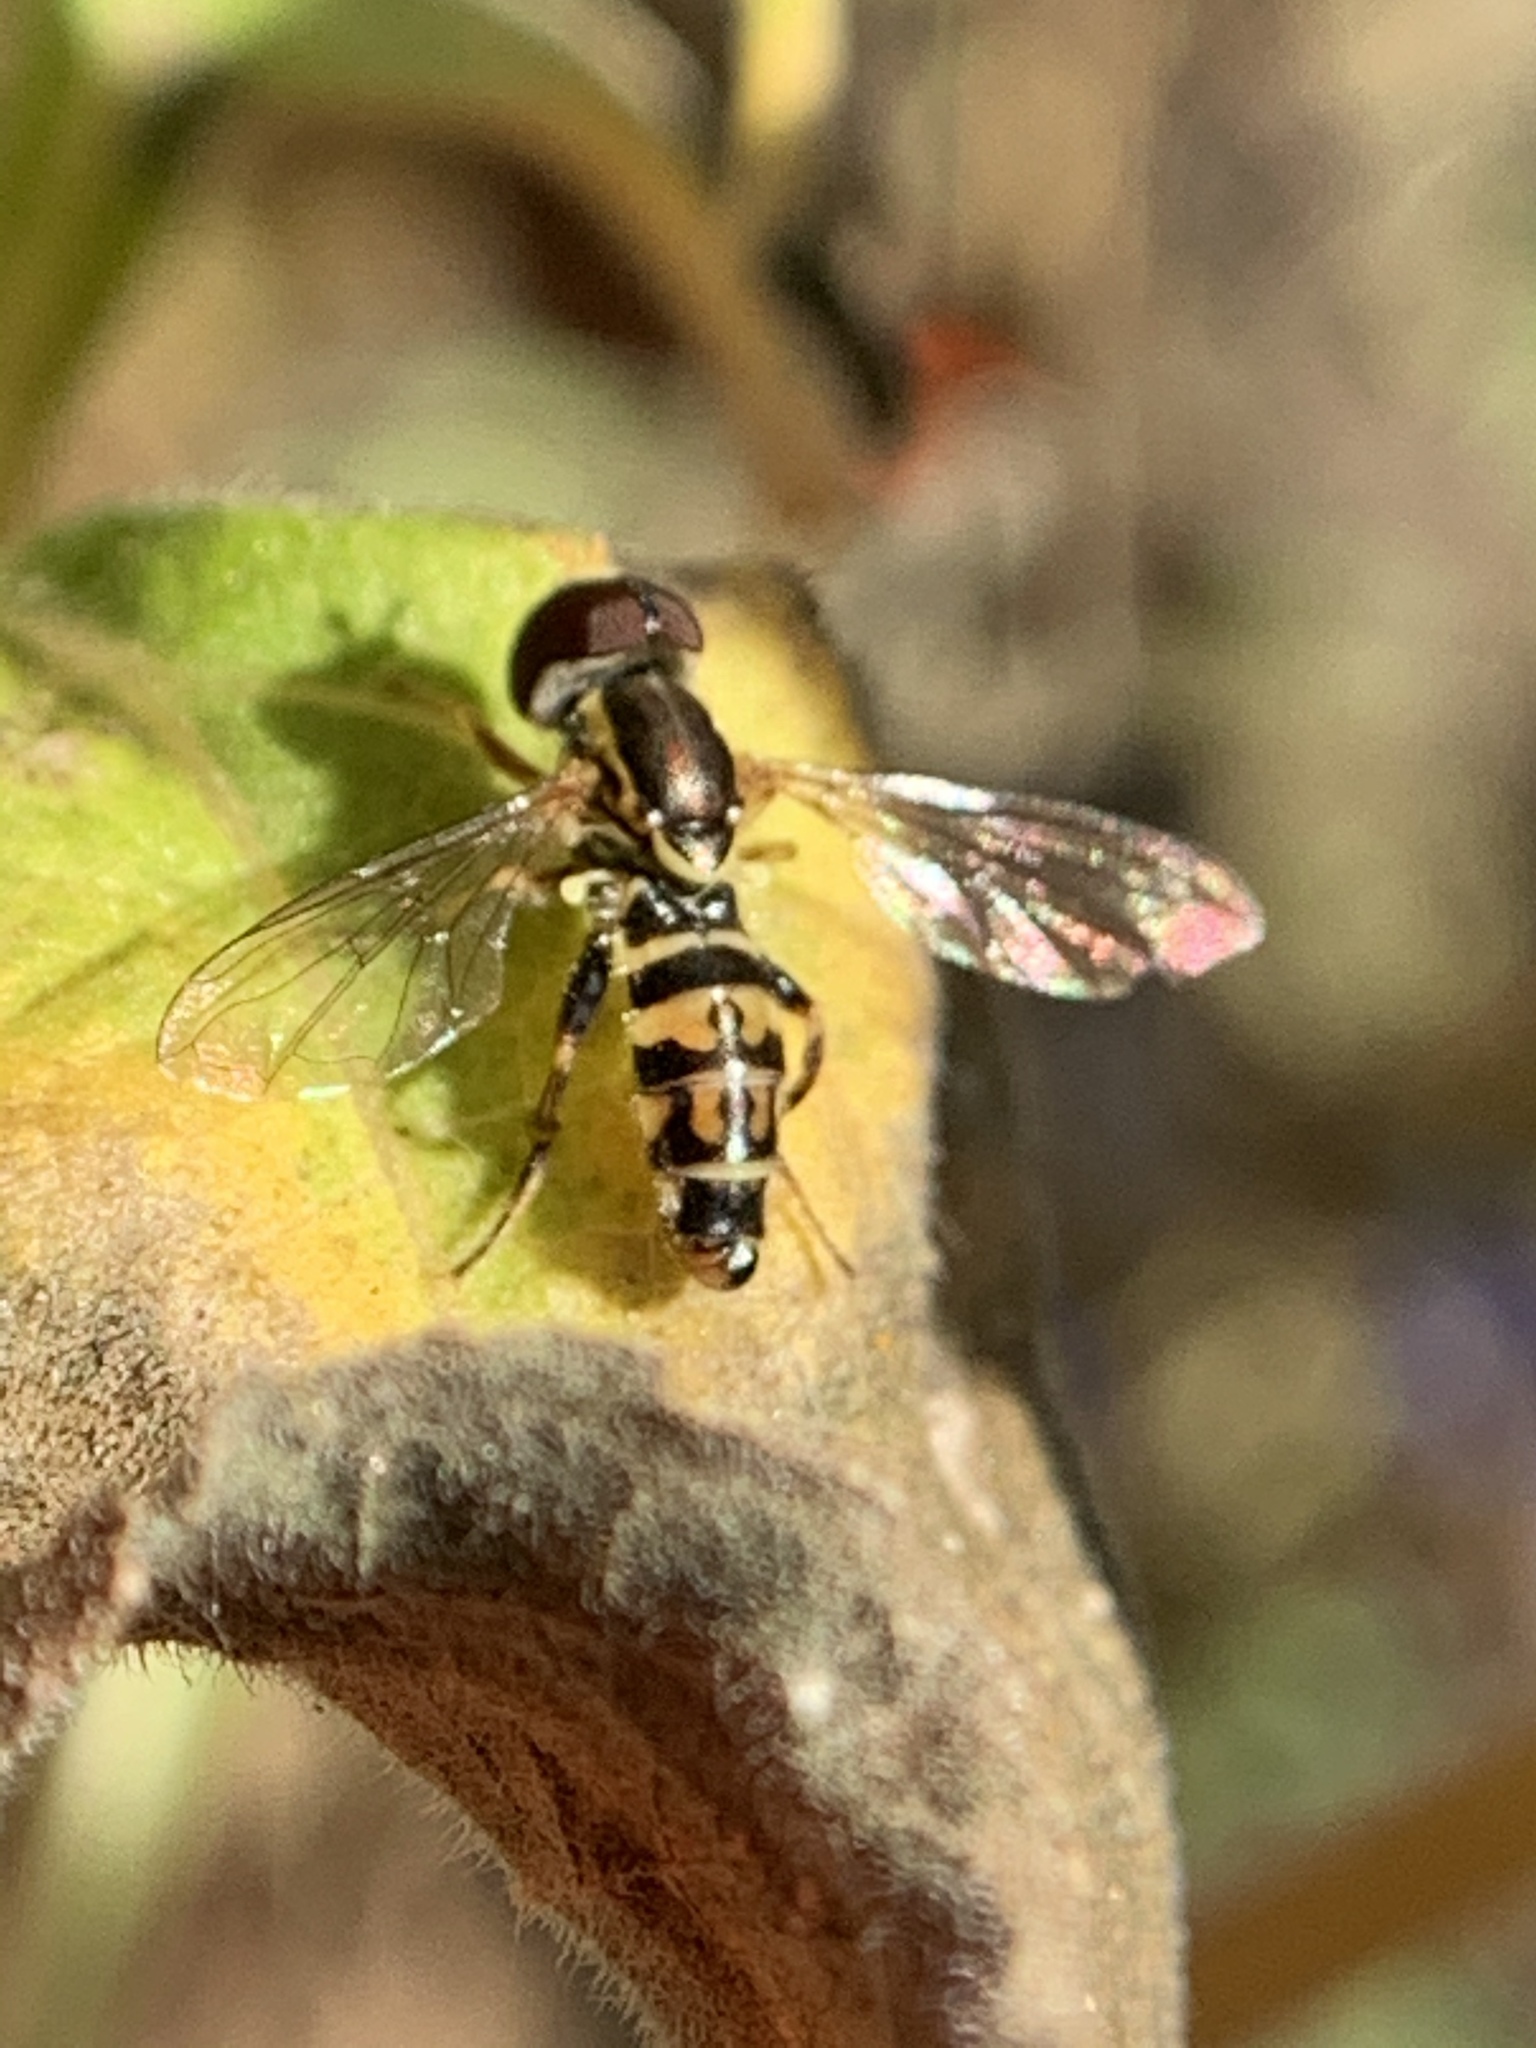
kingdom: Animalia
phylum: Arthropoda
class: Insecta
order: Diptera
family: Syrphidae
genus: Toxomerus
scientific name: Toxomerus occidentalis
